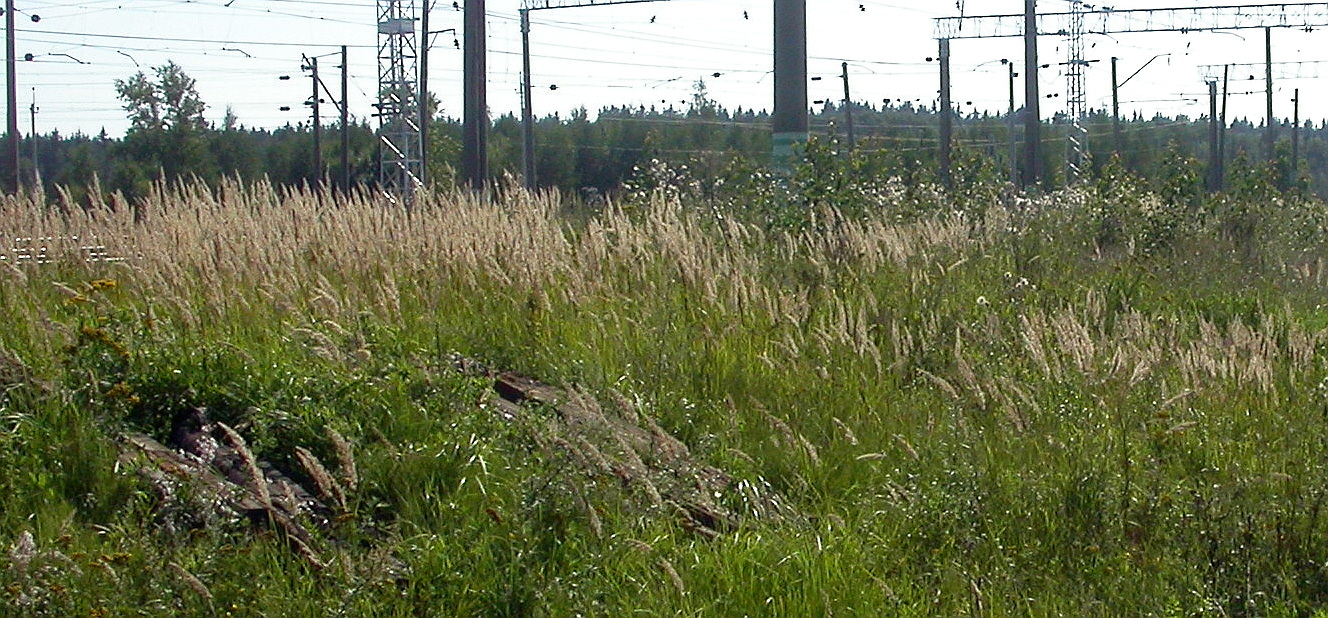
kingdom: Plantae
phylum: Tracheophyta
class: Liliopsida
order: Poales
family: Poaceae
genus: Calamagrostis
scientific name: Calamagrostis epigejos
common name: Wood small-reed
